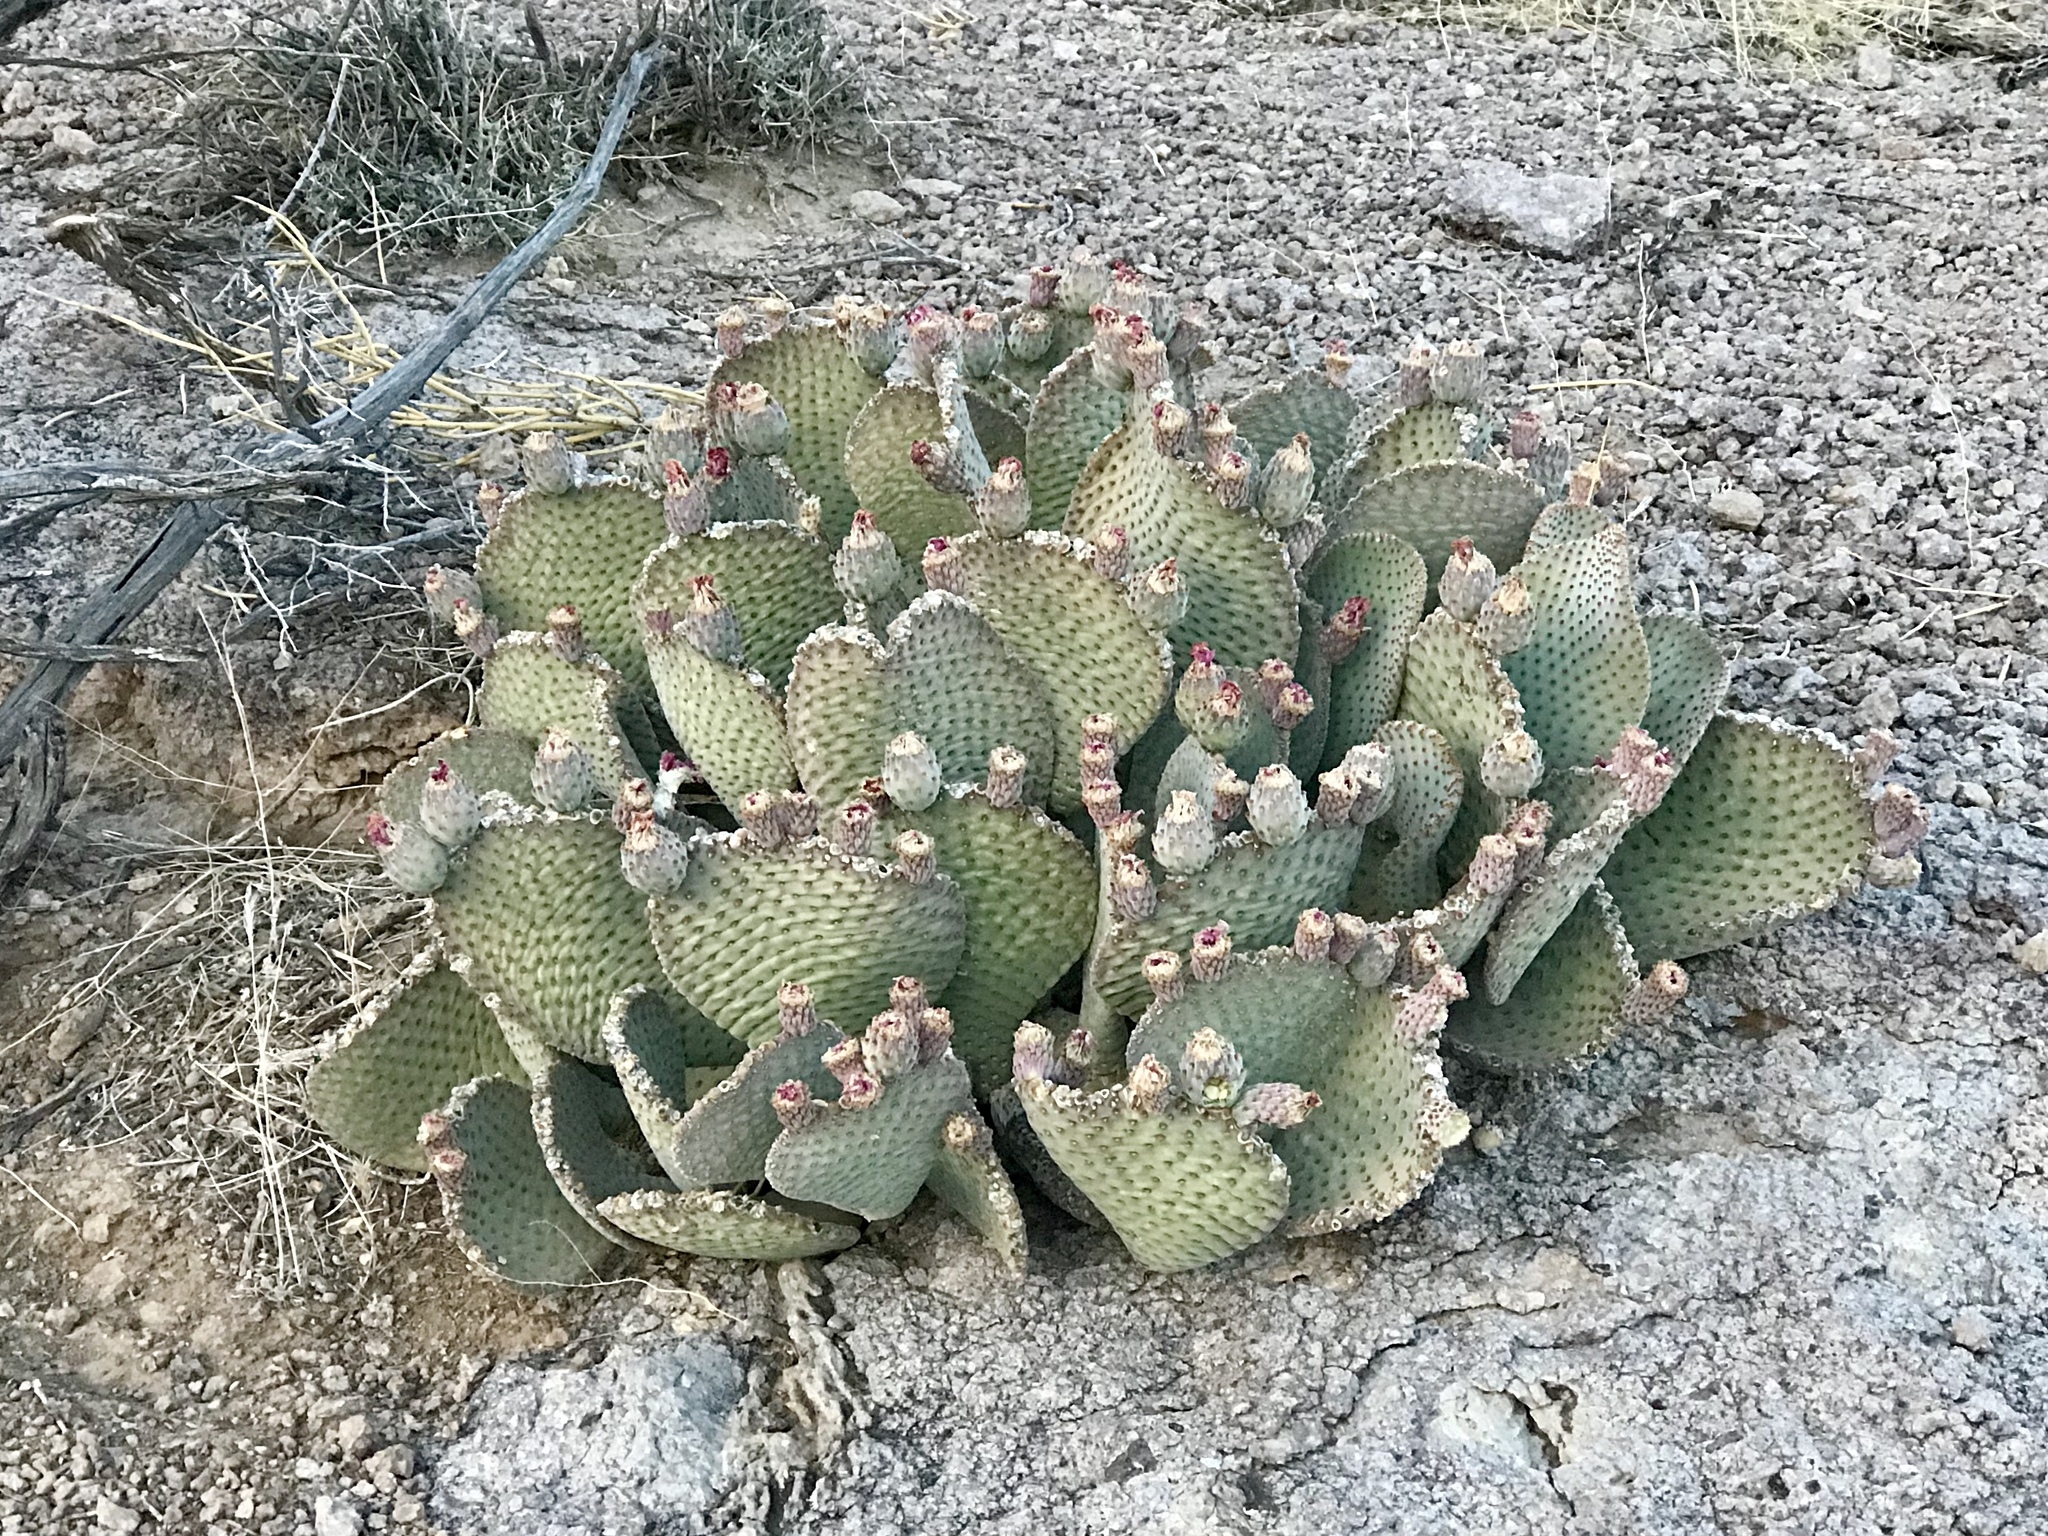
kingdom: Plantae
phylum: Tracheophyta
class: Magnoliopsida
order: Caryophyllales
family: Cactaceae
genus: Opuntia
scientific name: Opuntia basilaris
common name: Beavertail prickly-pear
